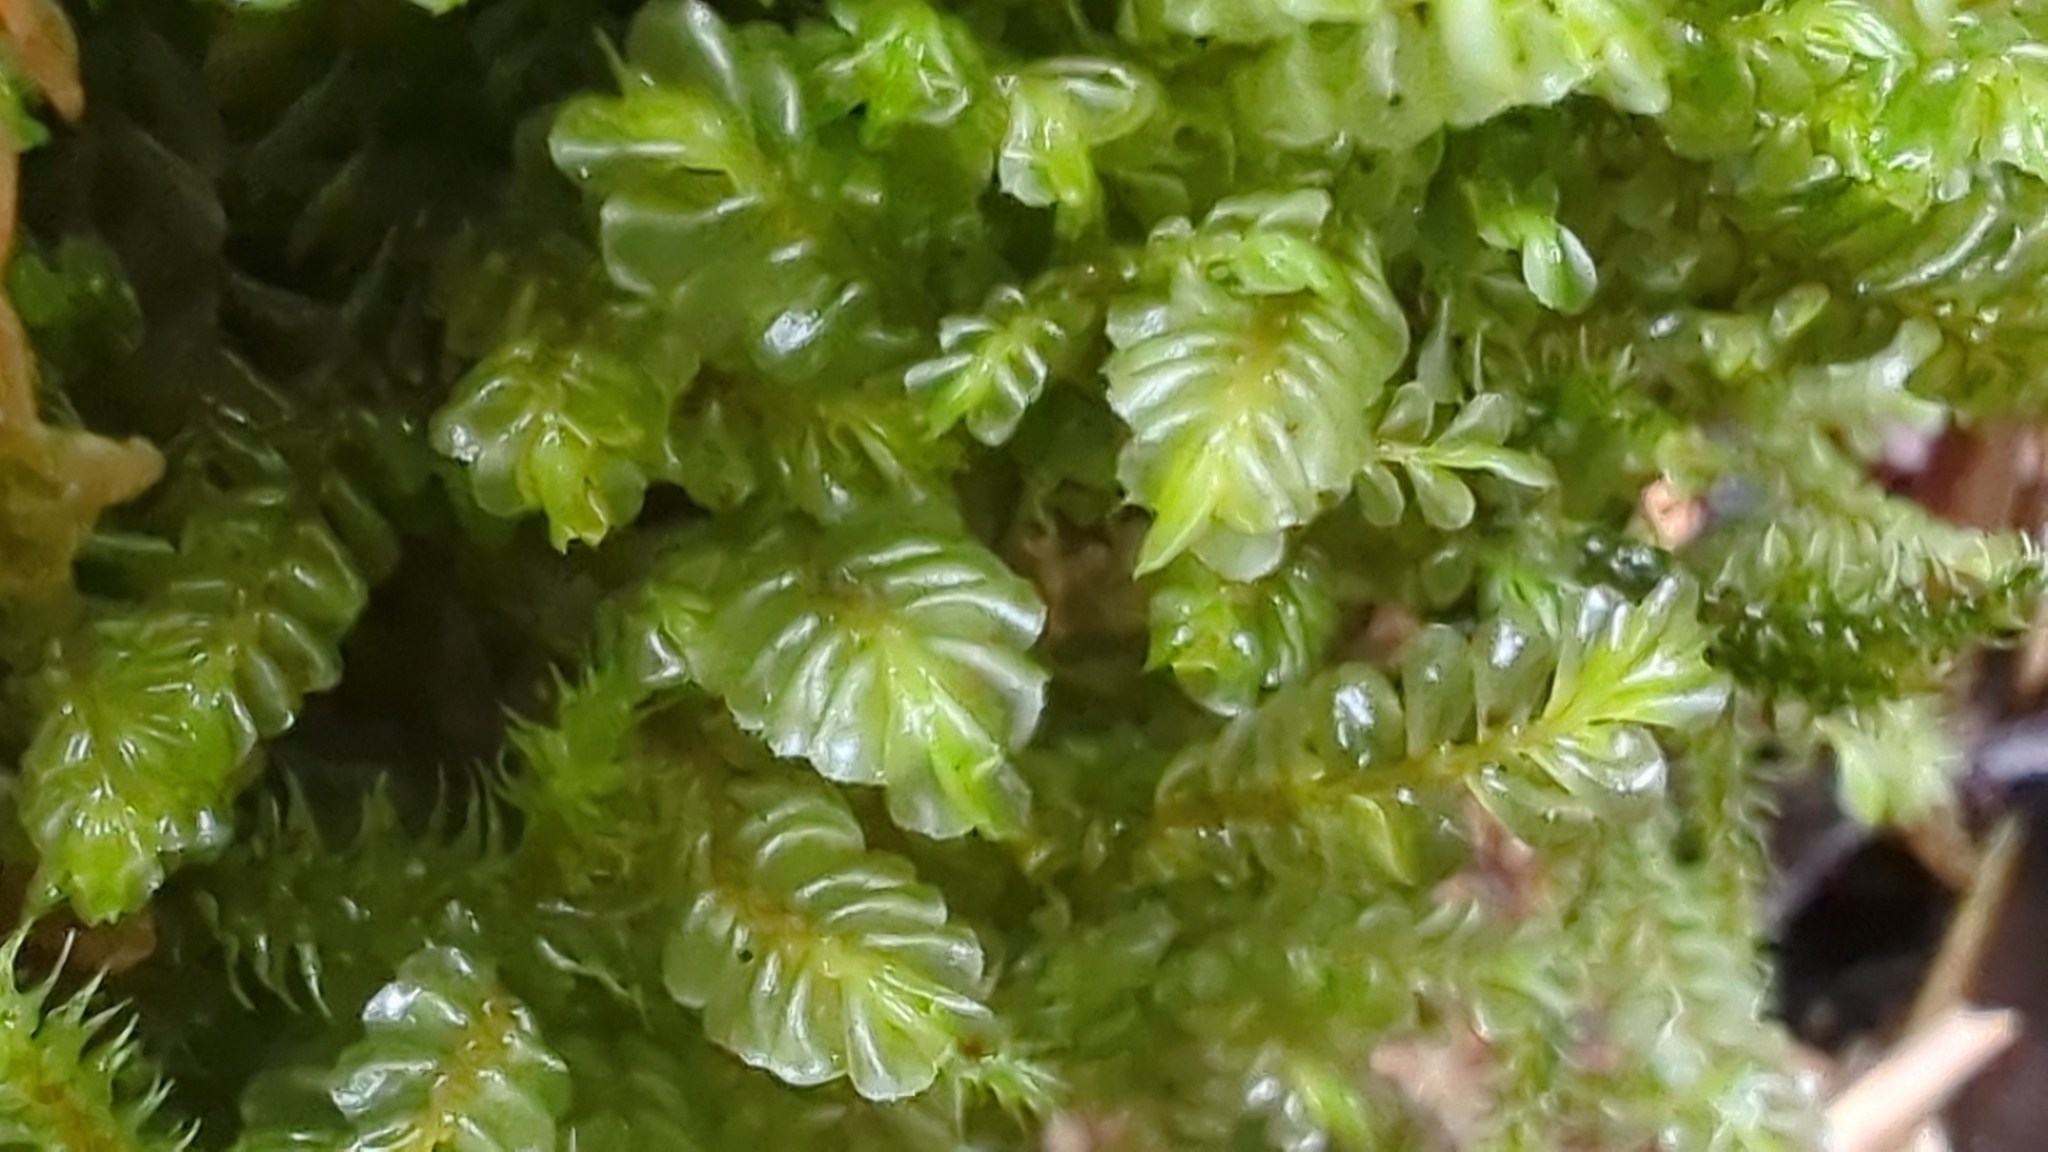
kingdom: Plantae
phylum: Marchantiophyta
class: Jungermanniopsida
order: Jungermanniales
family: Plagiochilaceae
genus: Plagiochila
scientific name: Plagiochila porelloides
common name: Lesser featherwort
